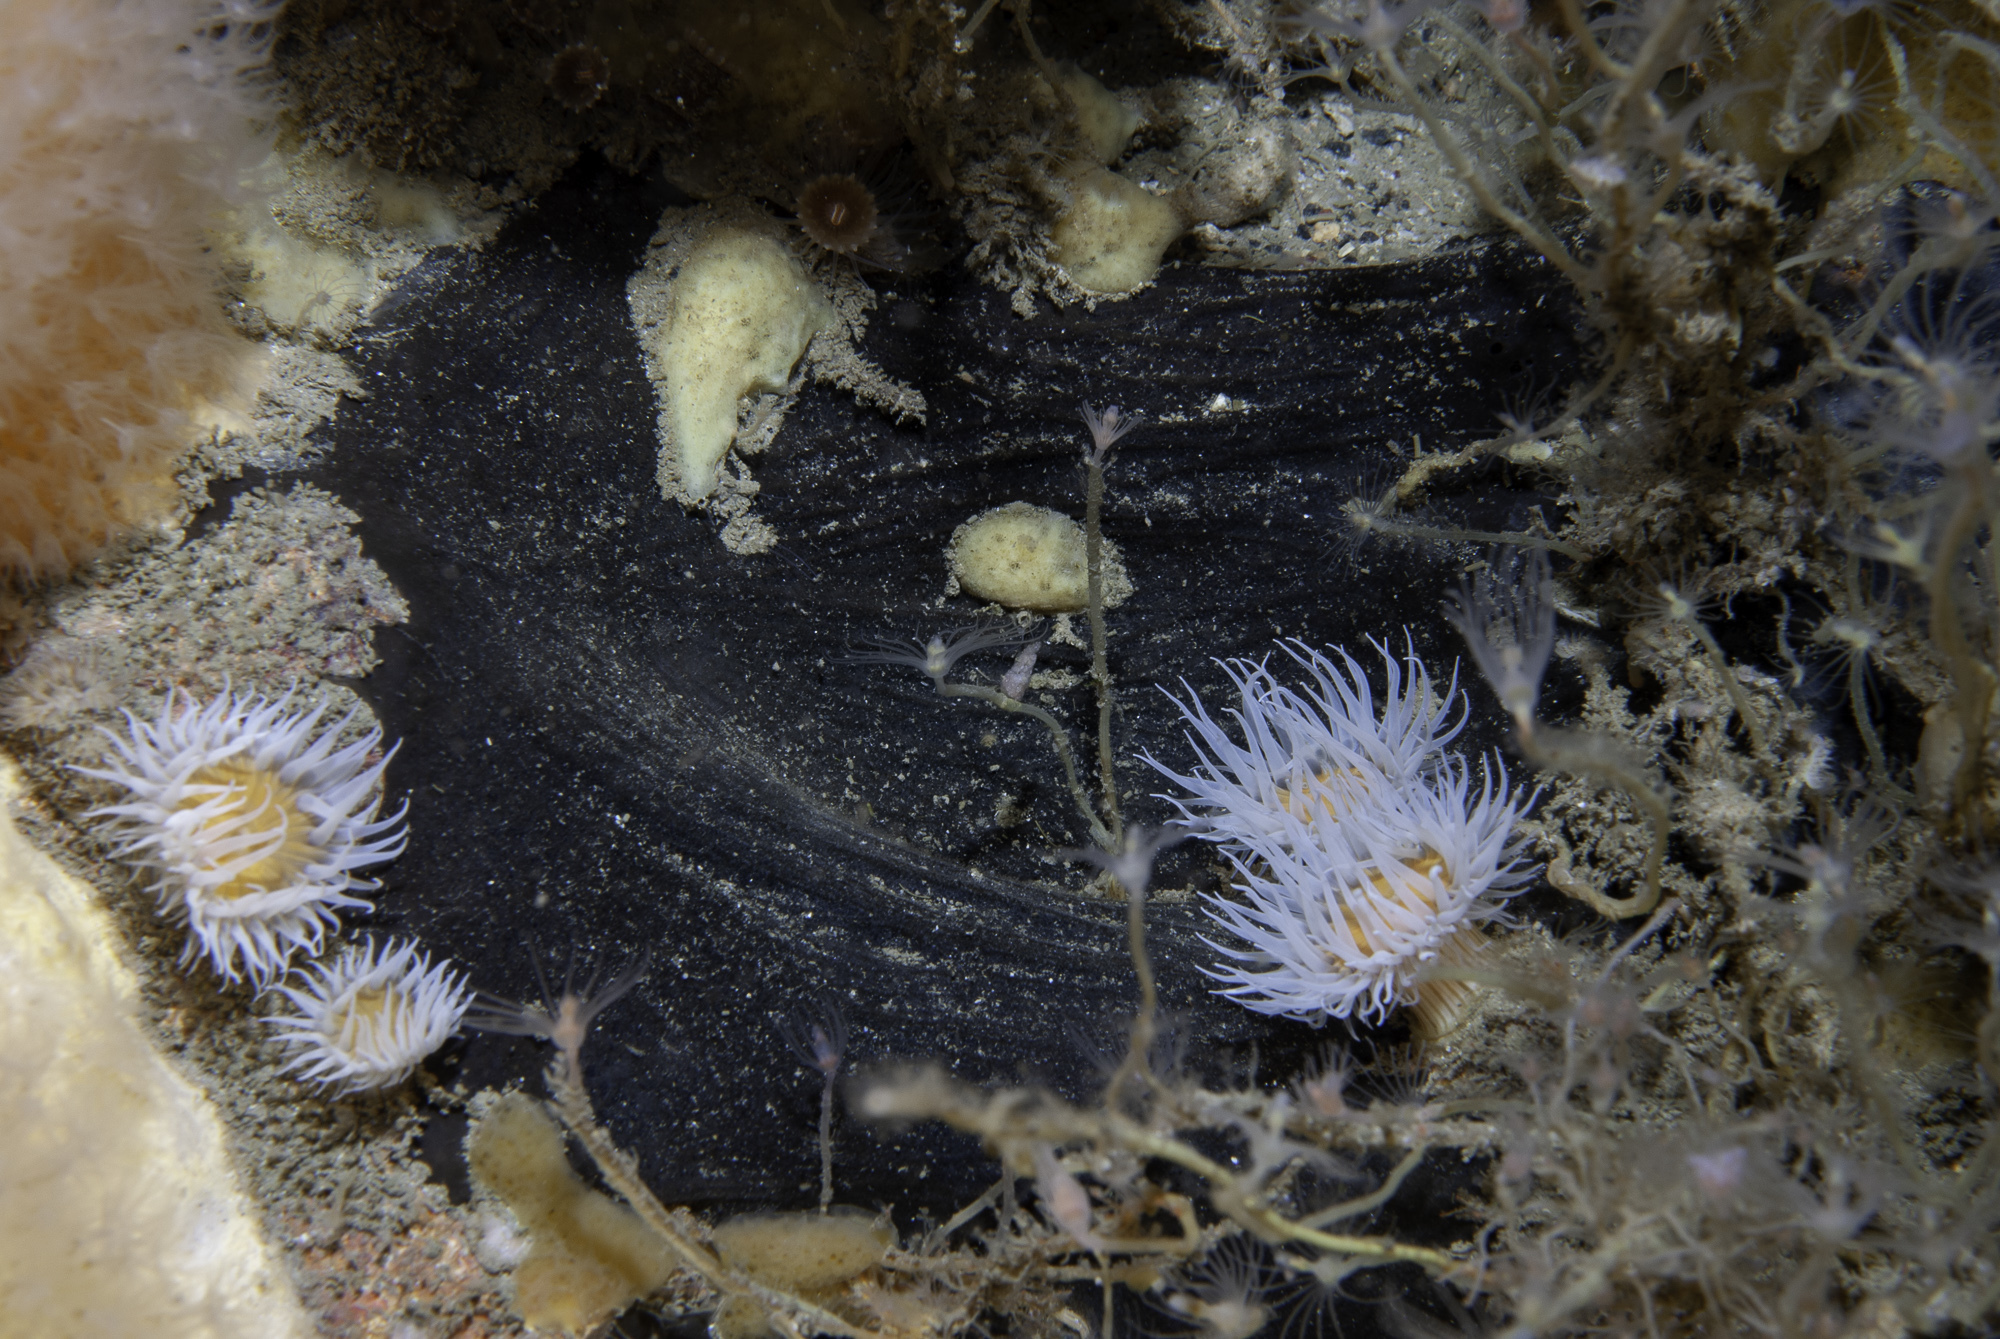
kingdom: Animalia
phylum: Porifera
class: Demospongiae
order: Tetractinellida
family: Ancorinidae
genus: Dercitus
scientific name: Dercitus bucklandi
